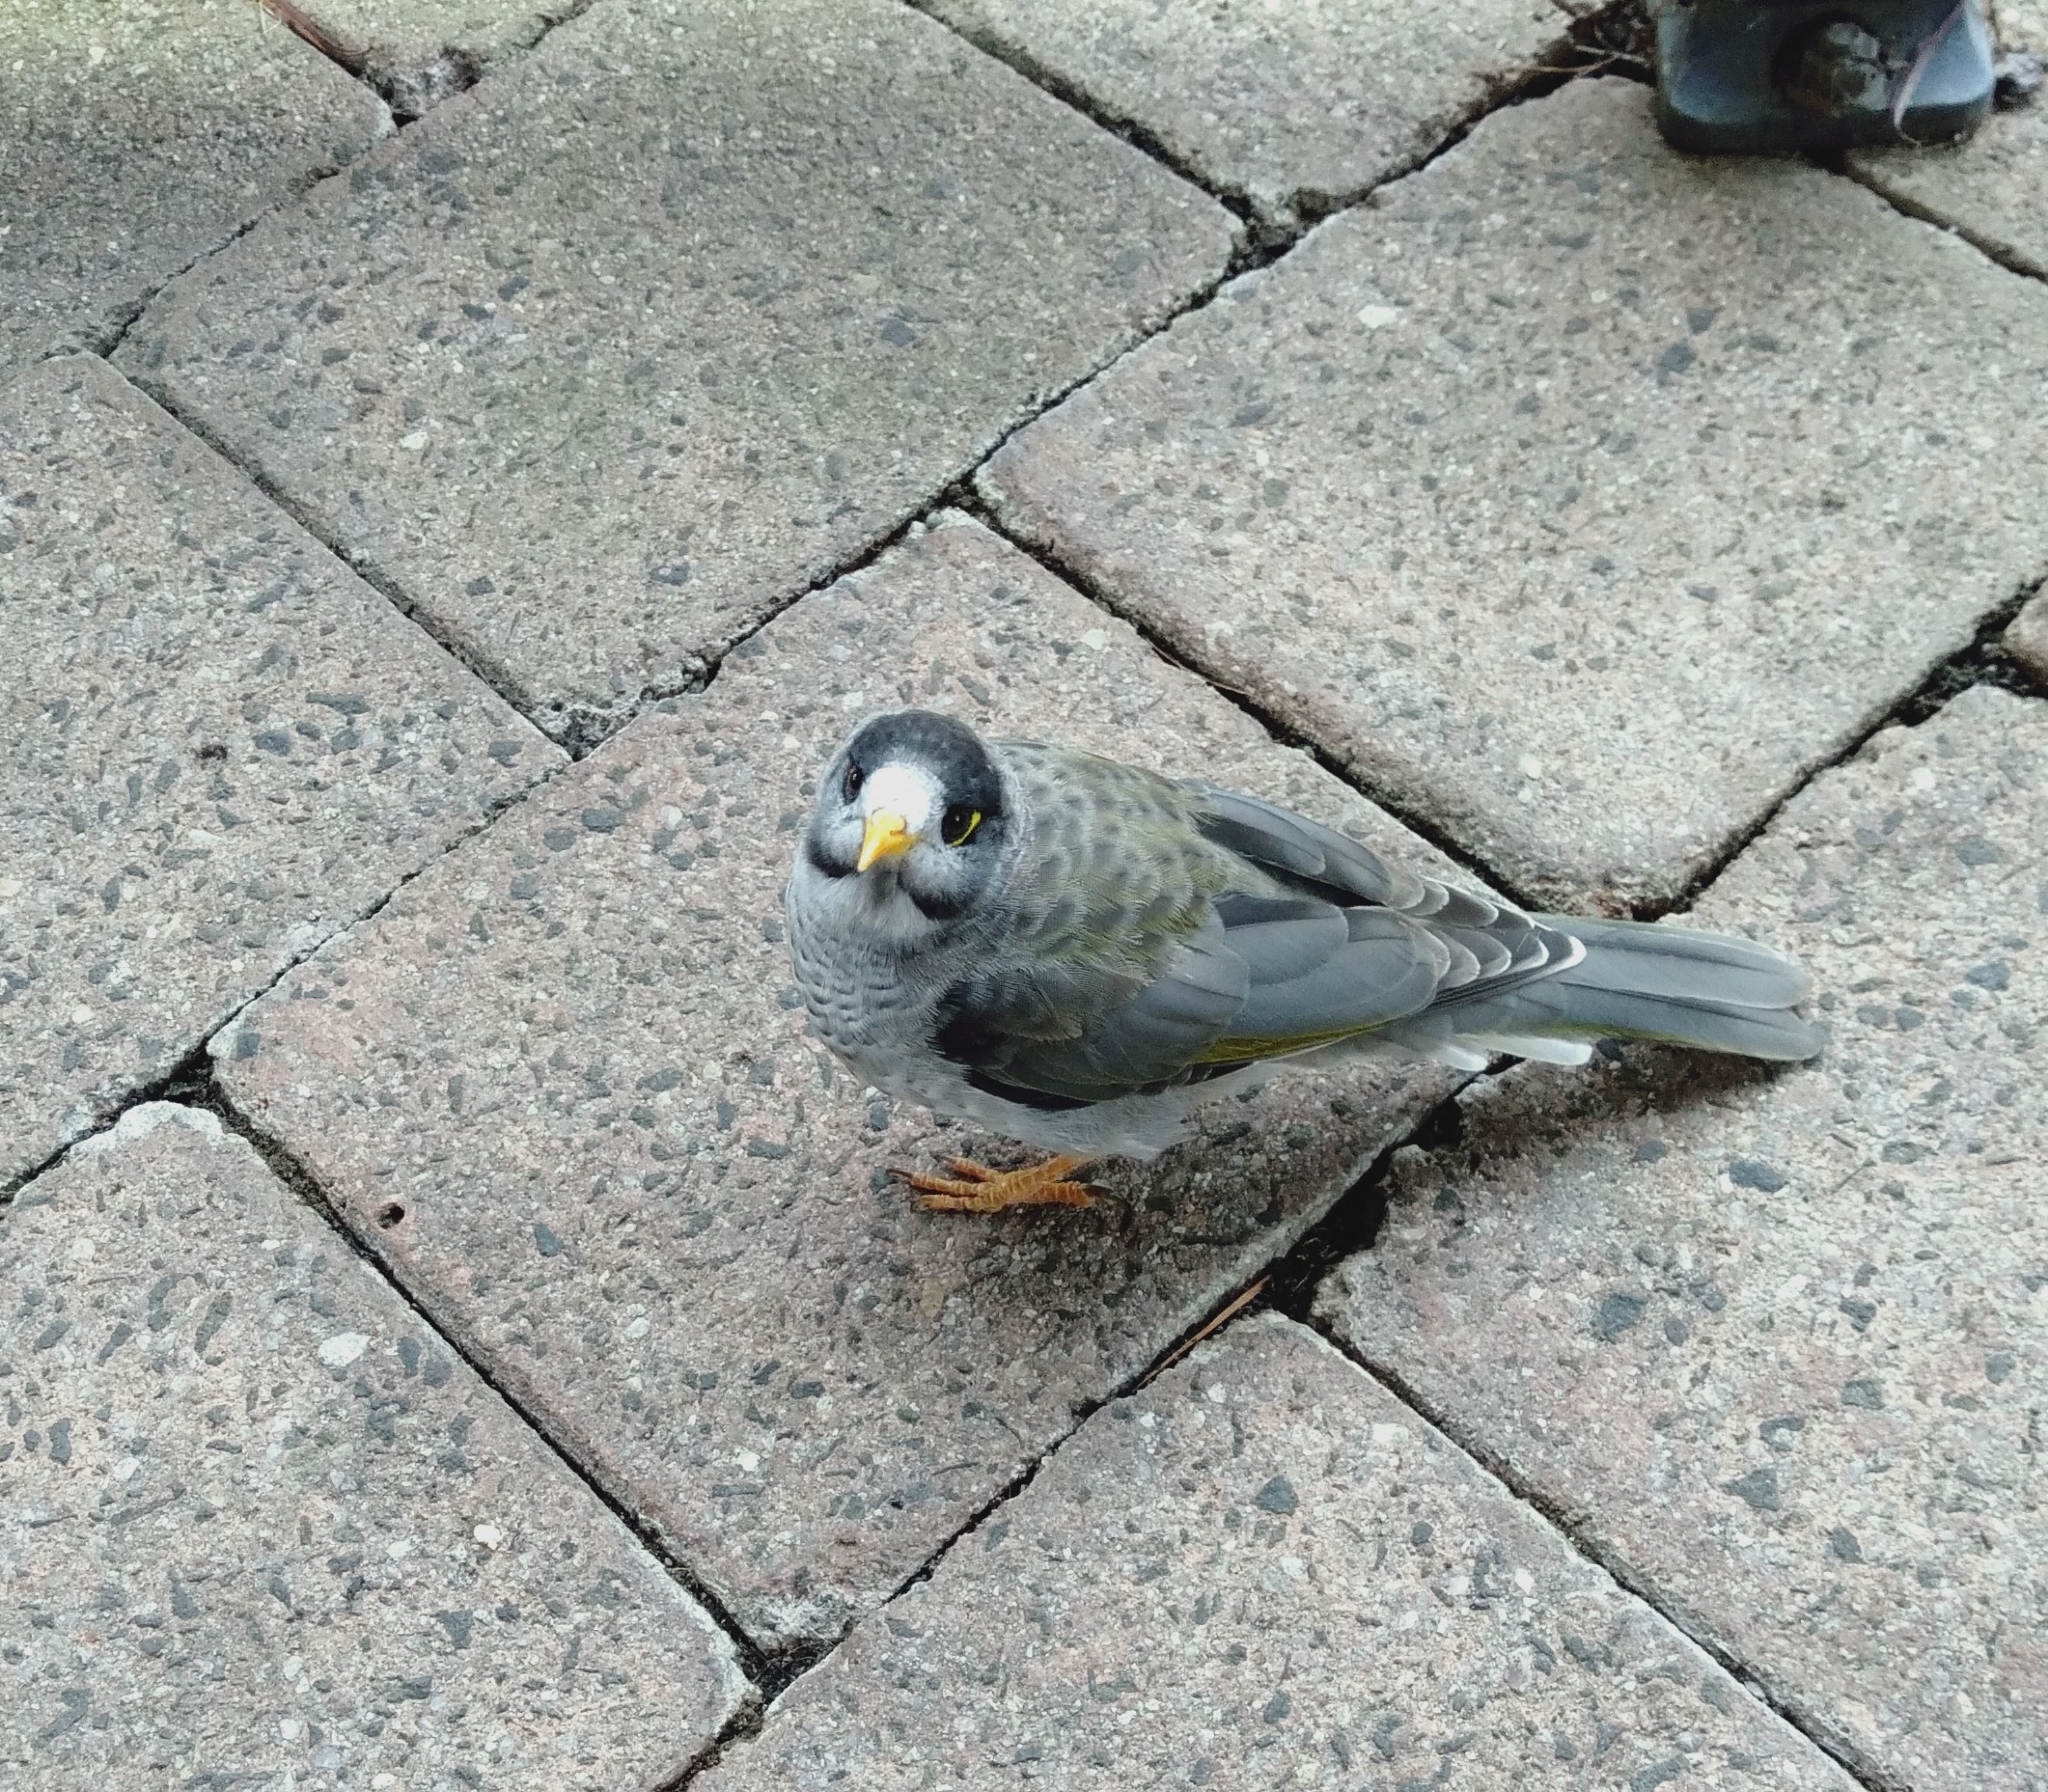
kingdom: Animalia
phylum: Chordata
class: Aves
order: Passeriformes
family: Meliphagidae
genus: Manorina
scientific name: Manorina melanocephala
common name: Noisy miner
